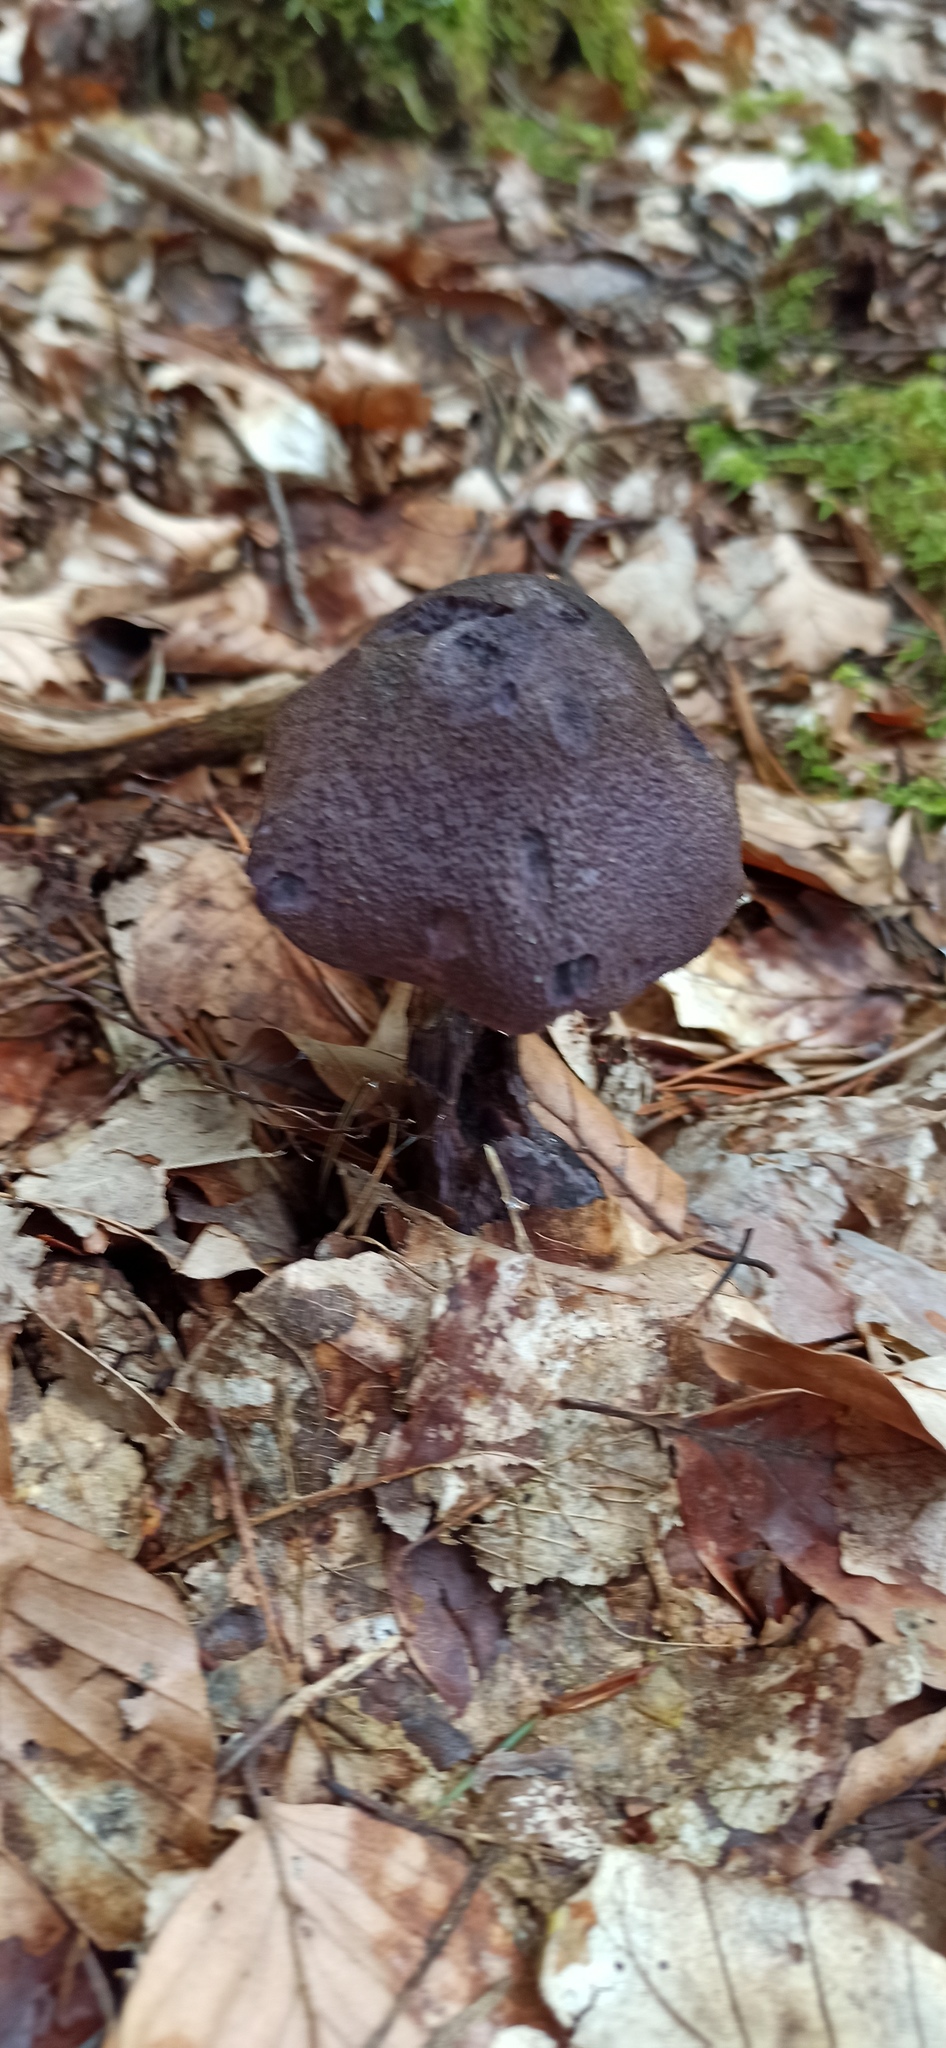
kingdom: Fungi
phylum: Basidiomycota
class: Agaricomycetes
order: Agaricales
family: Cortinariaceae
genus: Cortinarius
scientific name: Cortinarius violaceus
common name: Violet webcap
